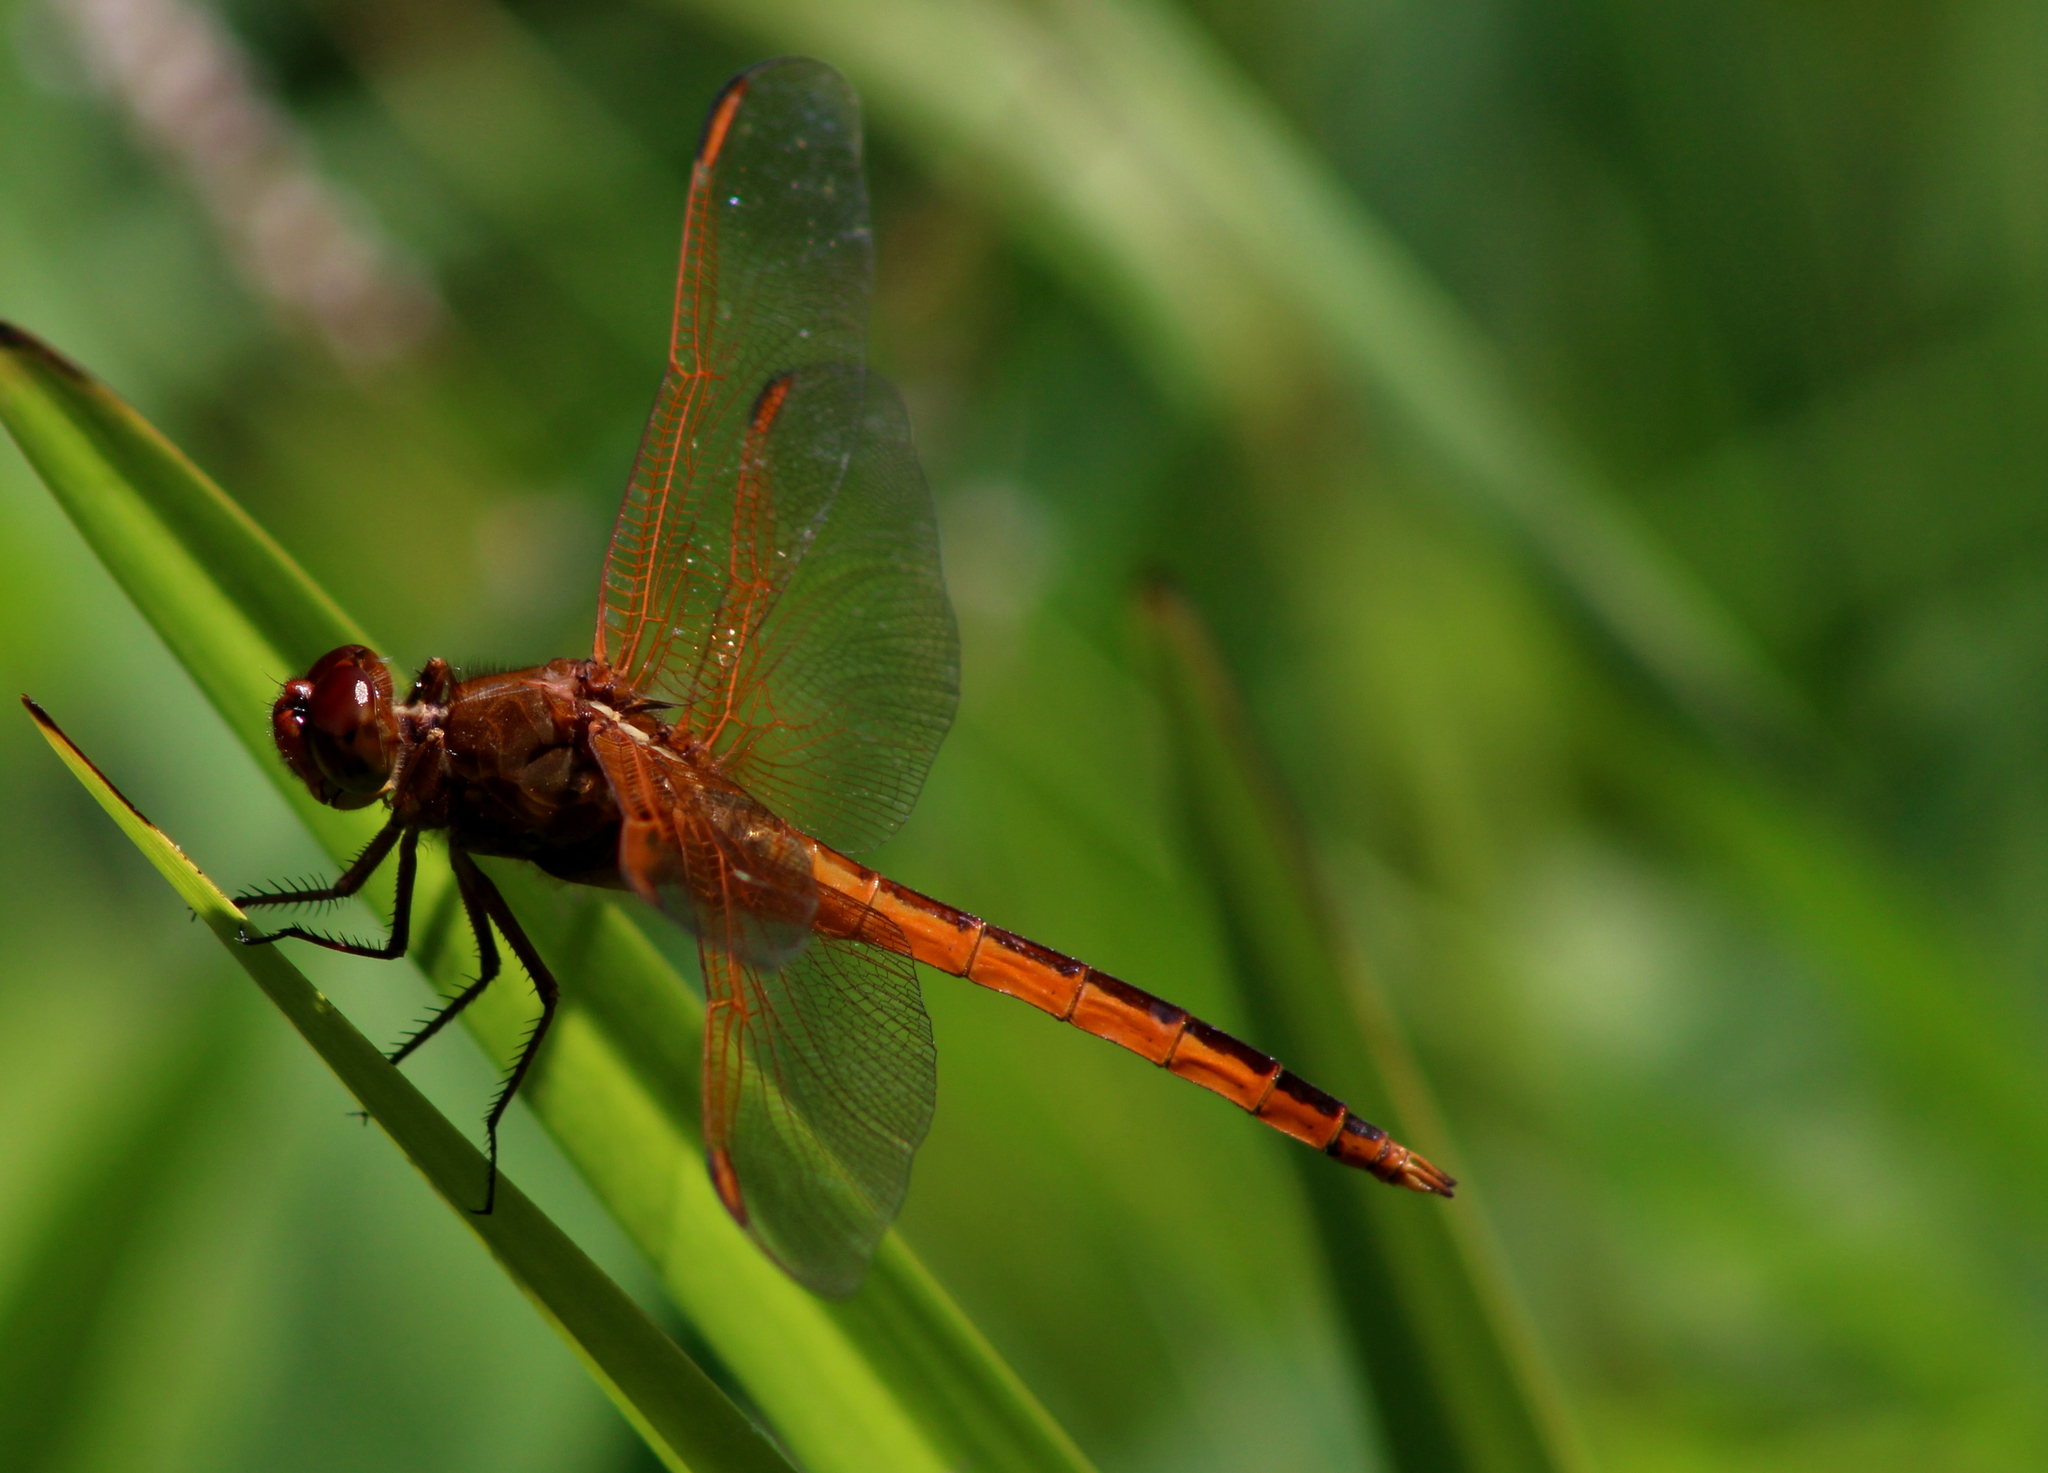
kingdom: Animalia
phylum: Arthropoda
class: Insecta
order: Odonata
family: Libellulidae
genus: Libellula
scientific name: Libellula needhami
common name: Needham's skimmer
